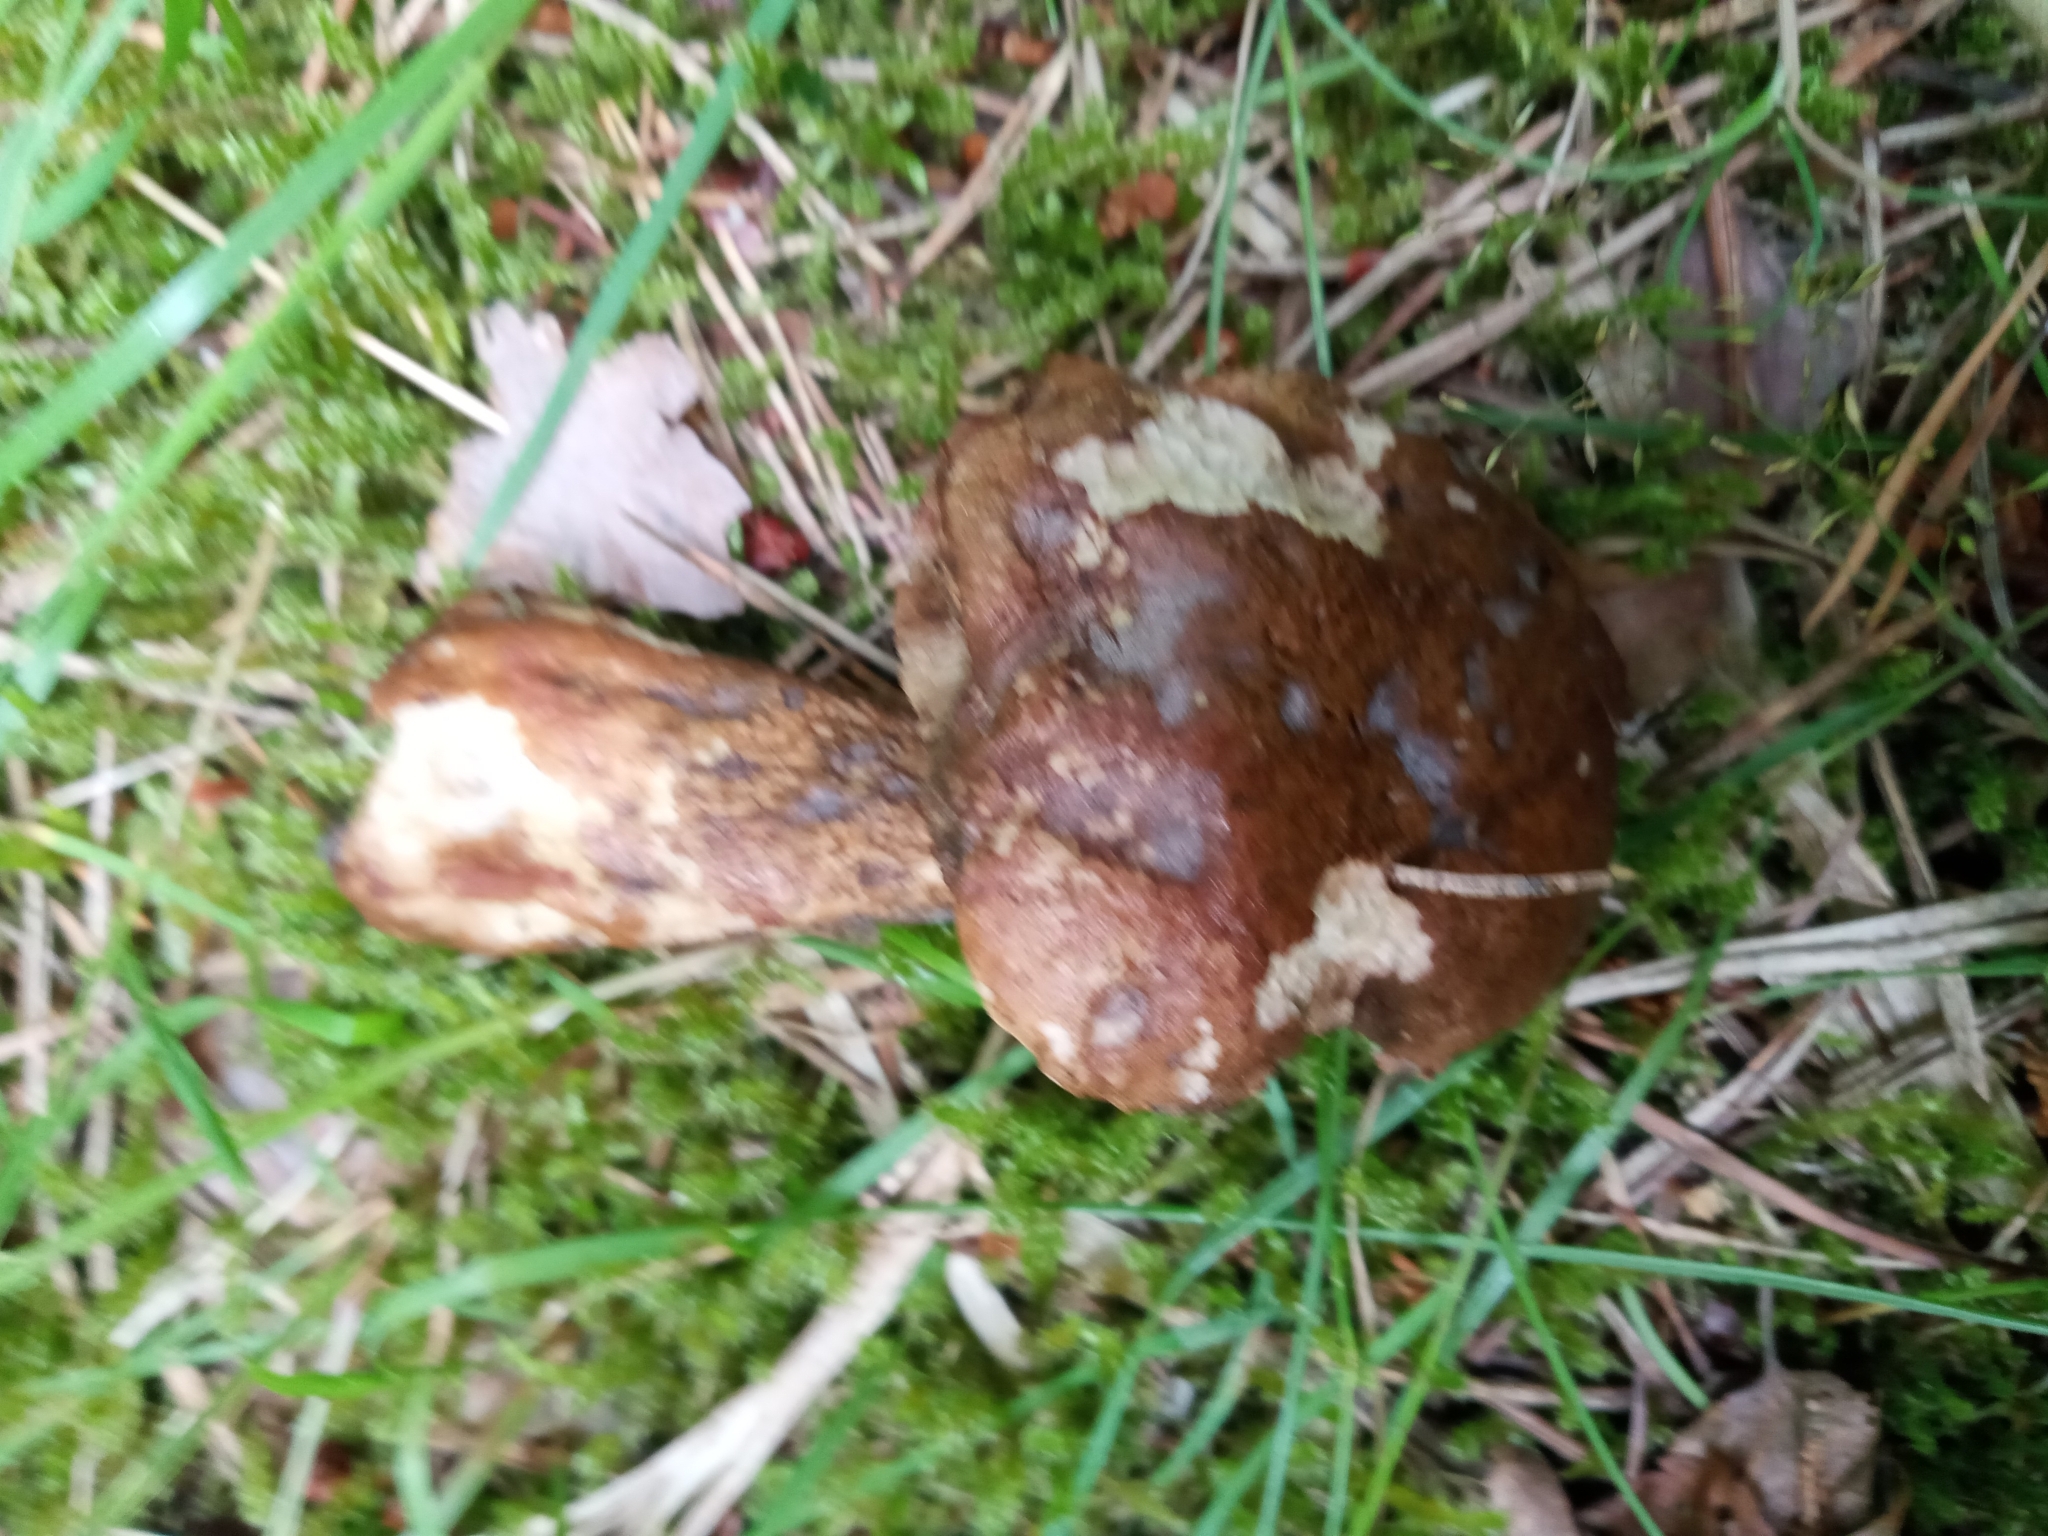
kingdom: Fungi
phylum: Basidiomycota
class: Agaricomycetes
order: Boletales
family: Boletaceae
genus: Tylopilus
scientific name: Tylopilus felleus
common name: Bitter bolete
